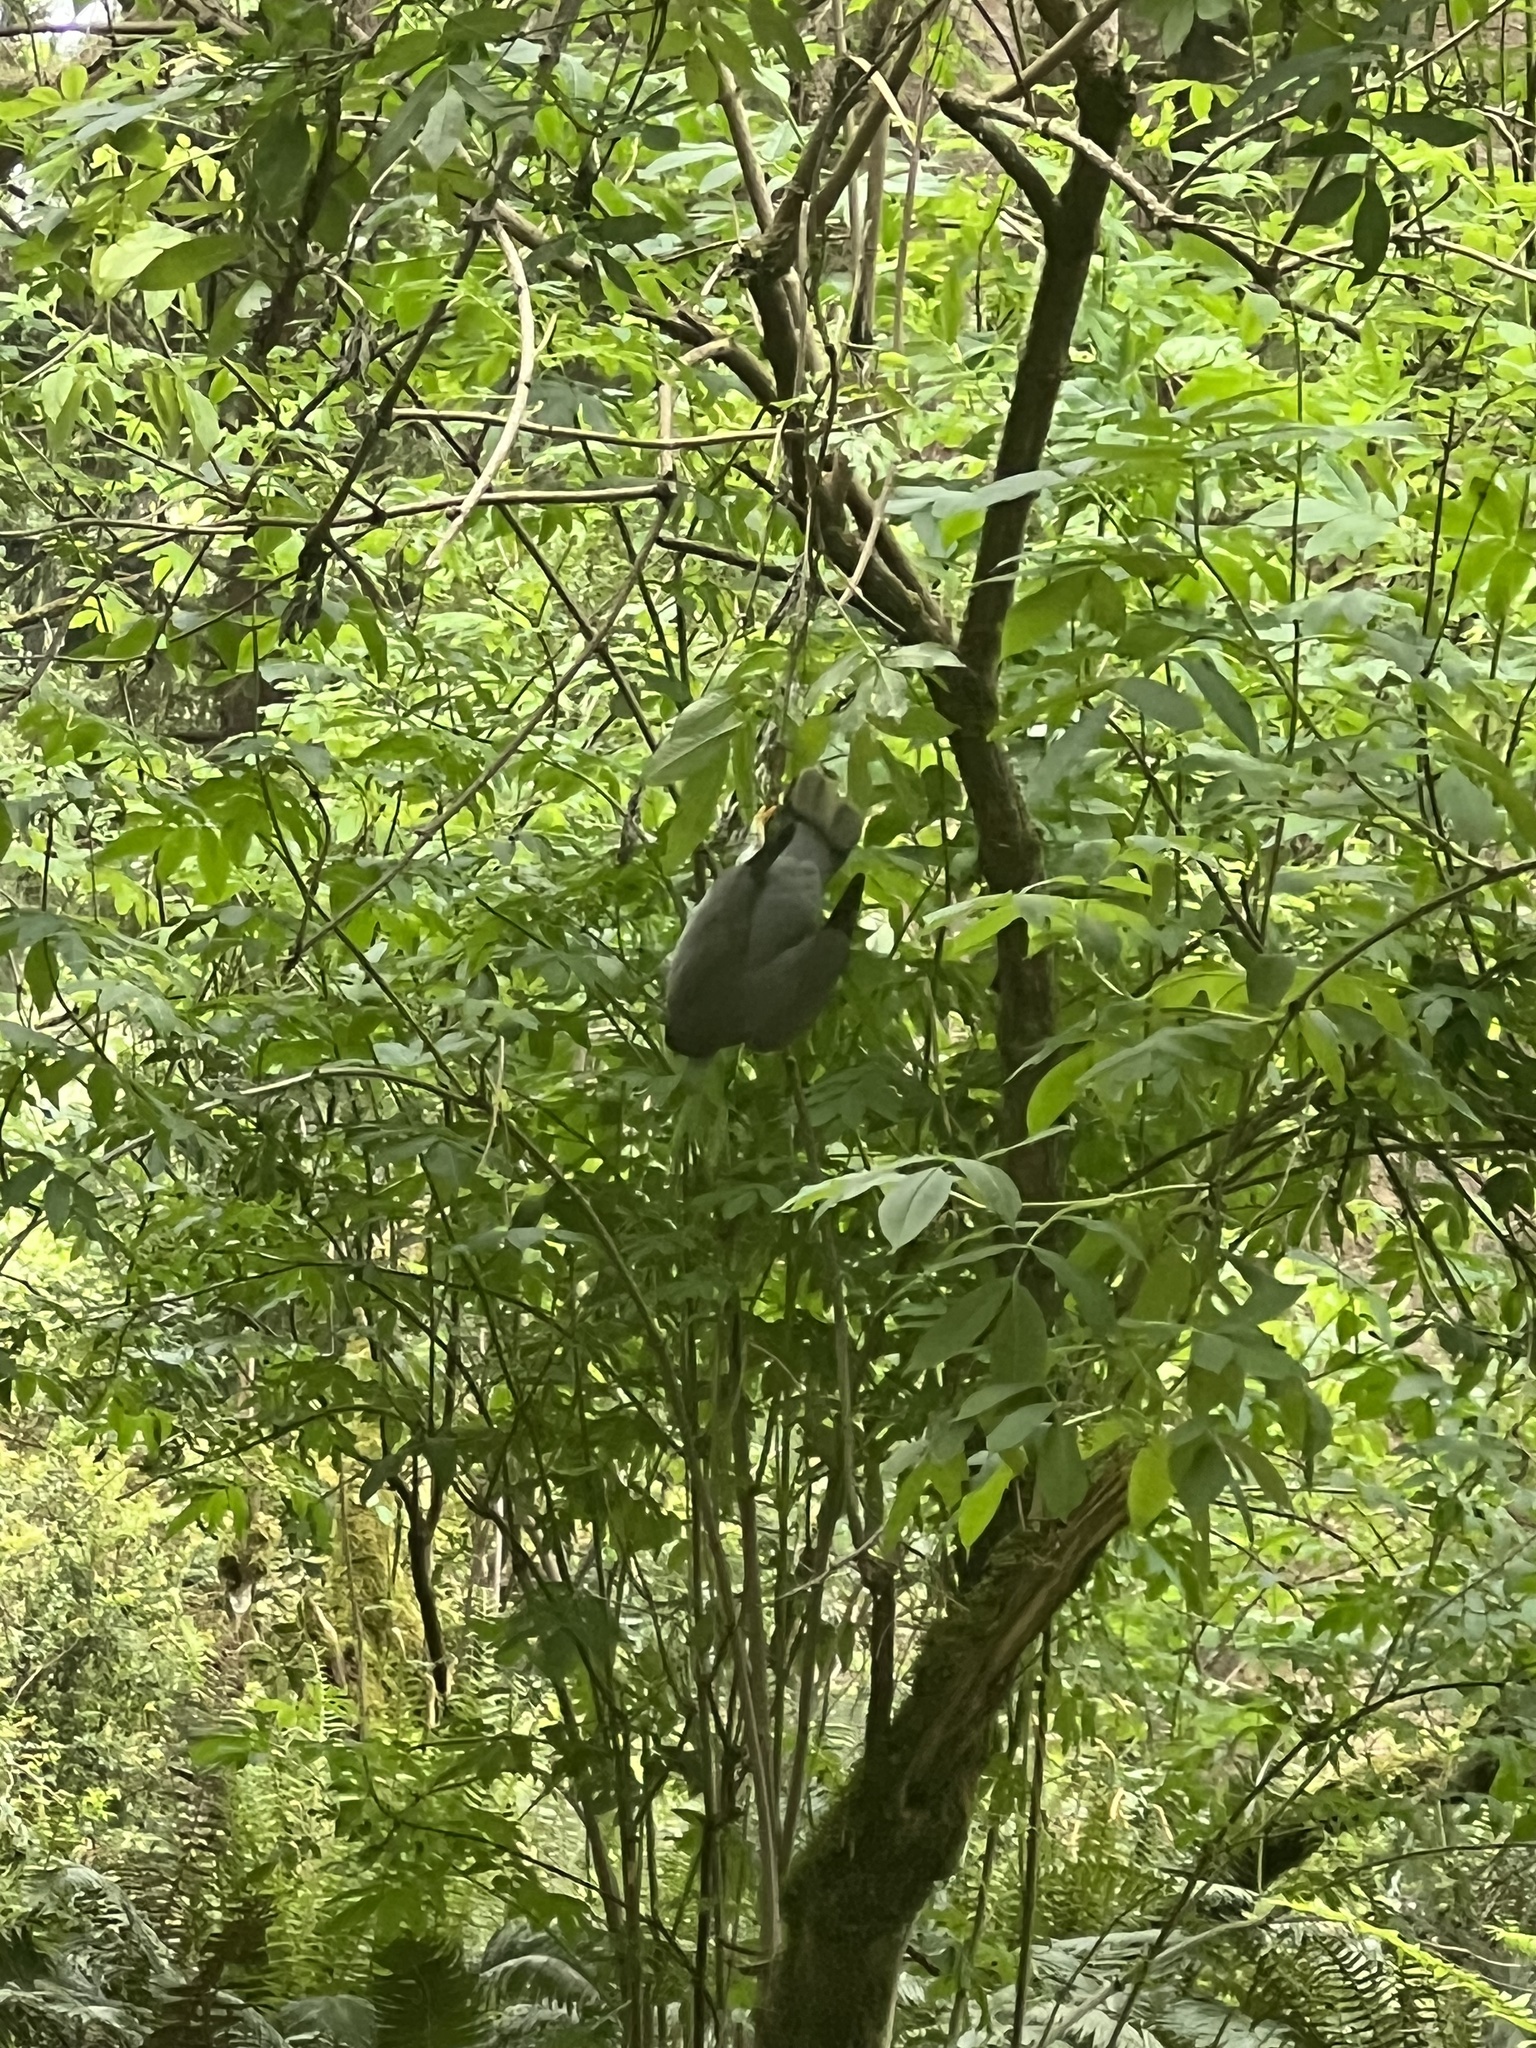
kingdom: Animalia
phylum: Chordata
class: Aves
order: Columbiformes
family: Columbidae
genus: Patagioenas
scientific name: Patagioenas fasciata
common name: Band-tailed pigeon
